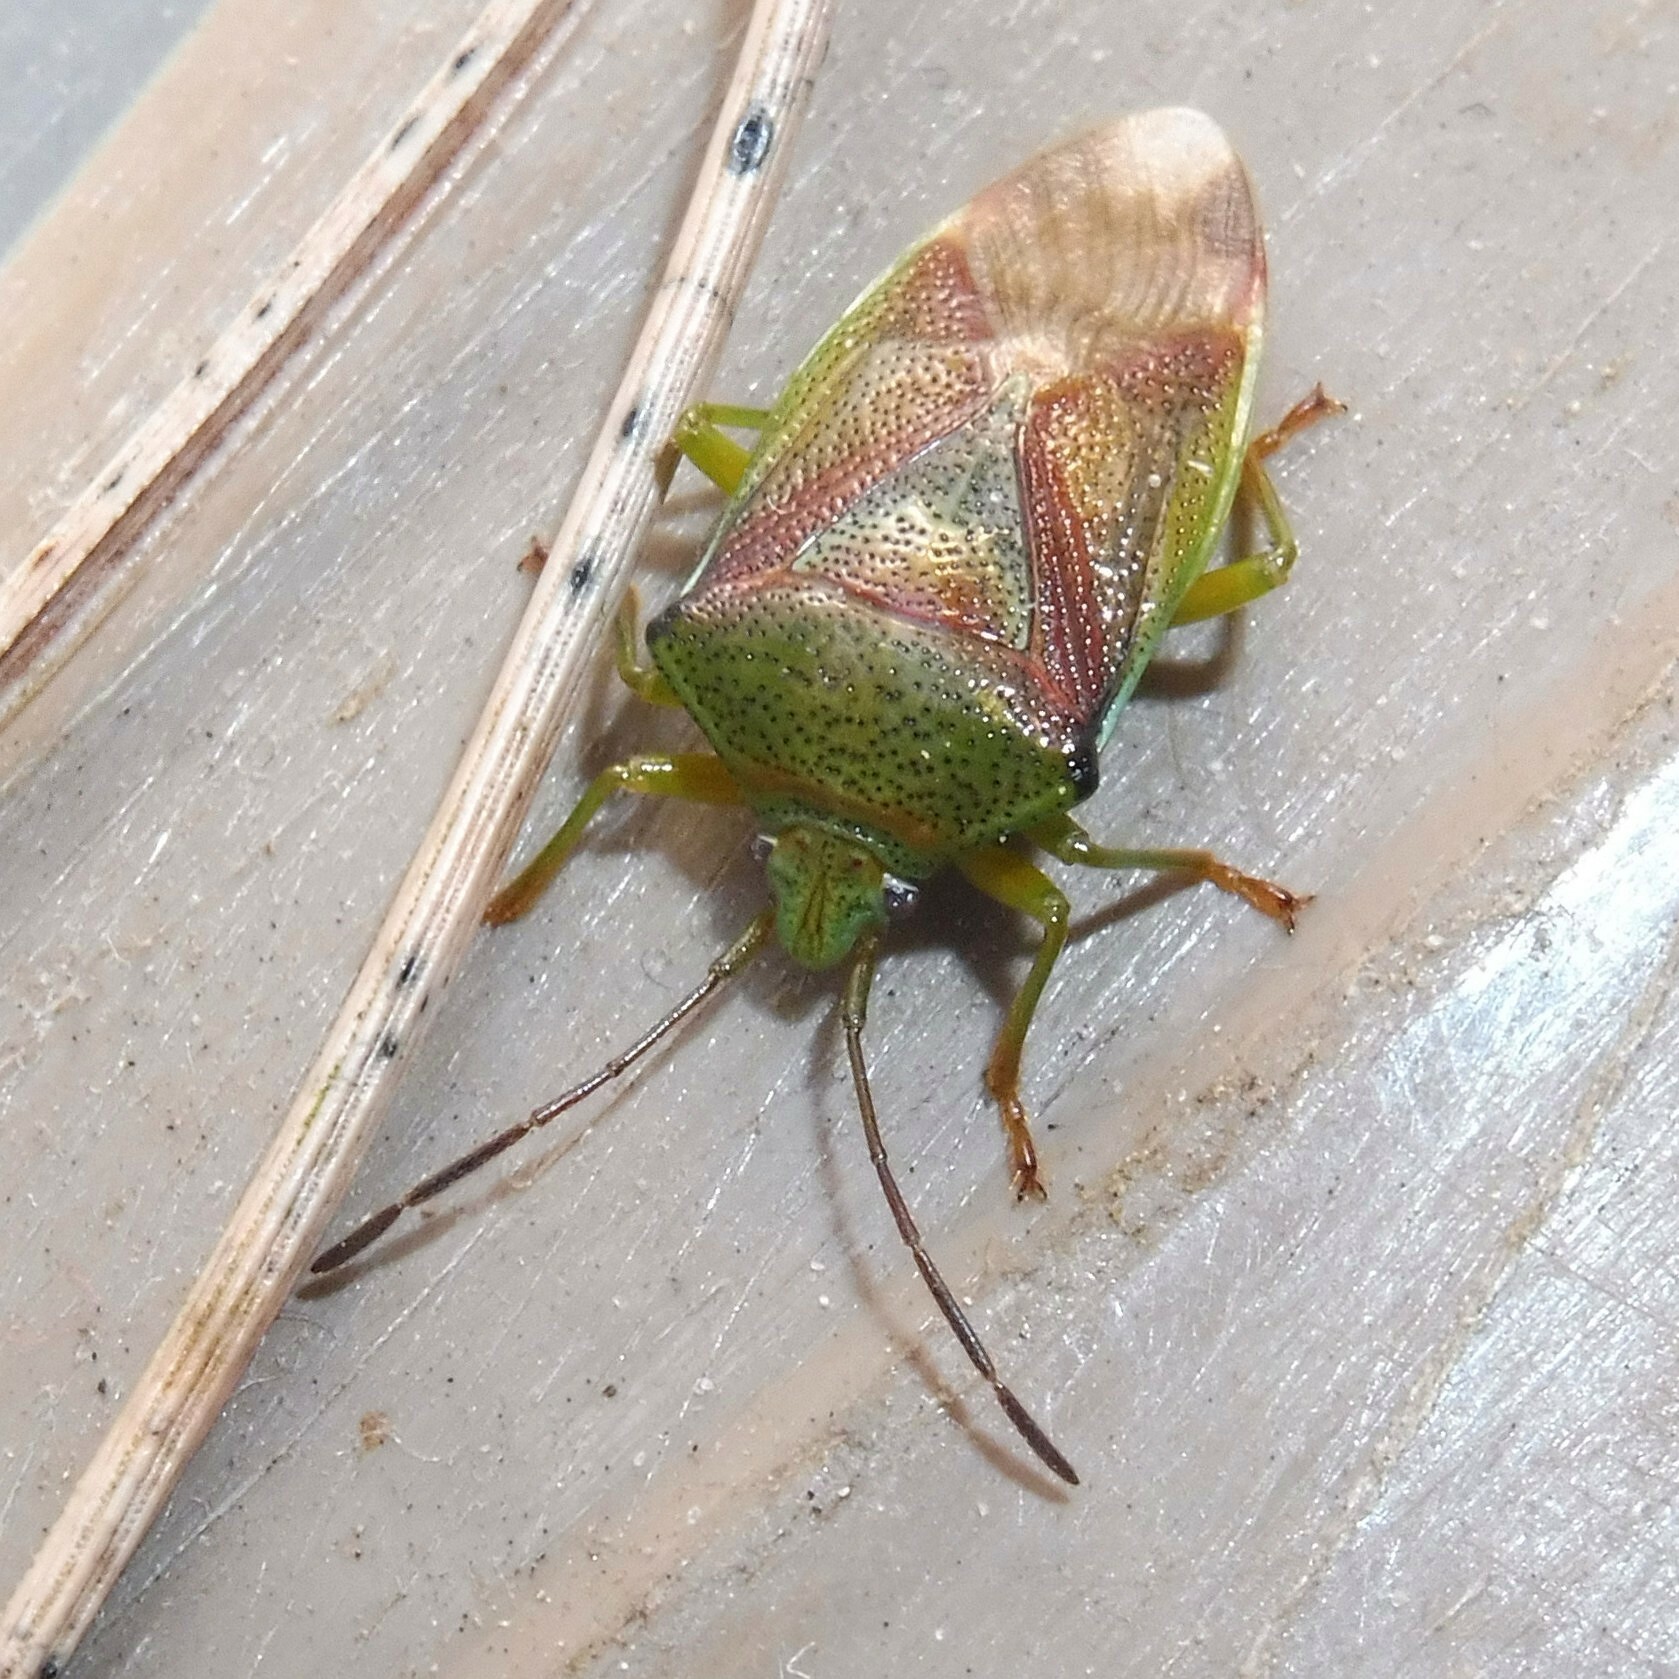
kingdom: Animalia
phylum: Arthropoda
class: Insecta
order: Hemiptera
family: Acanthosomatidae
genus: Elasmostethus
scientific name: Elasmostethus interstinctus
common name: Birch shieldbug
